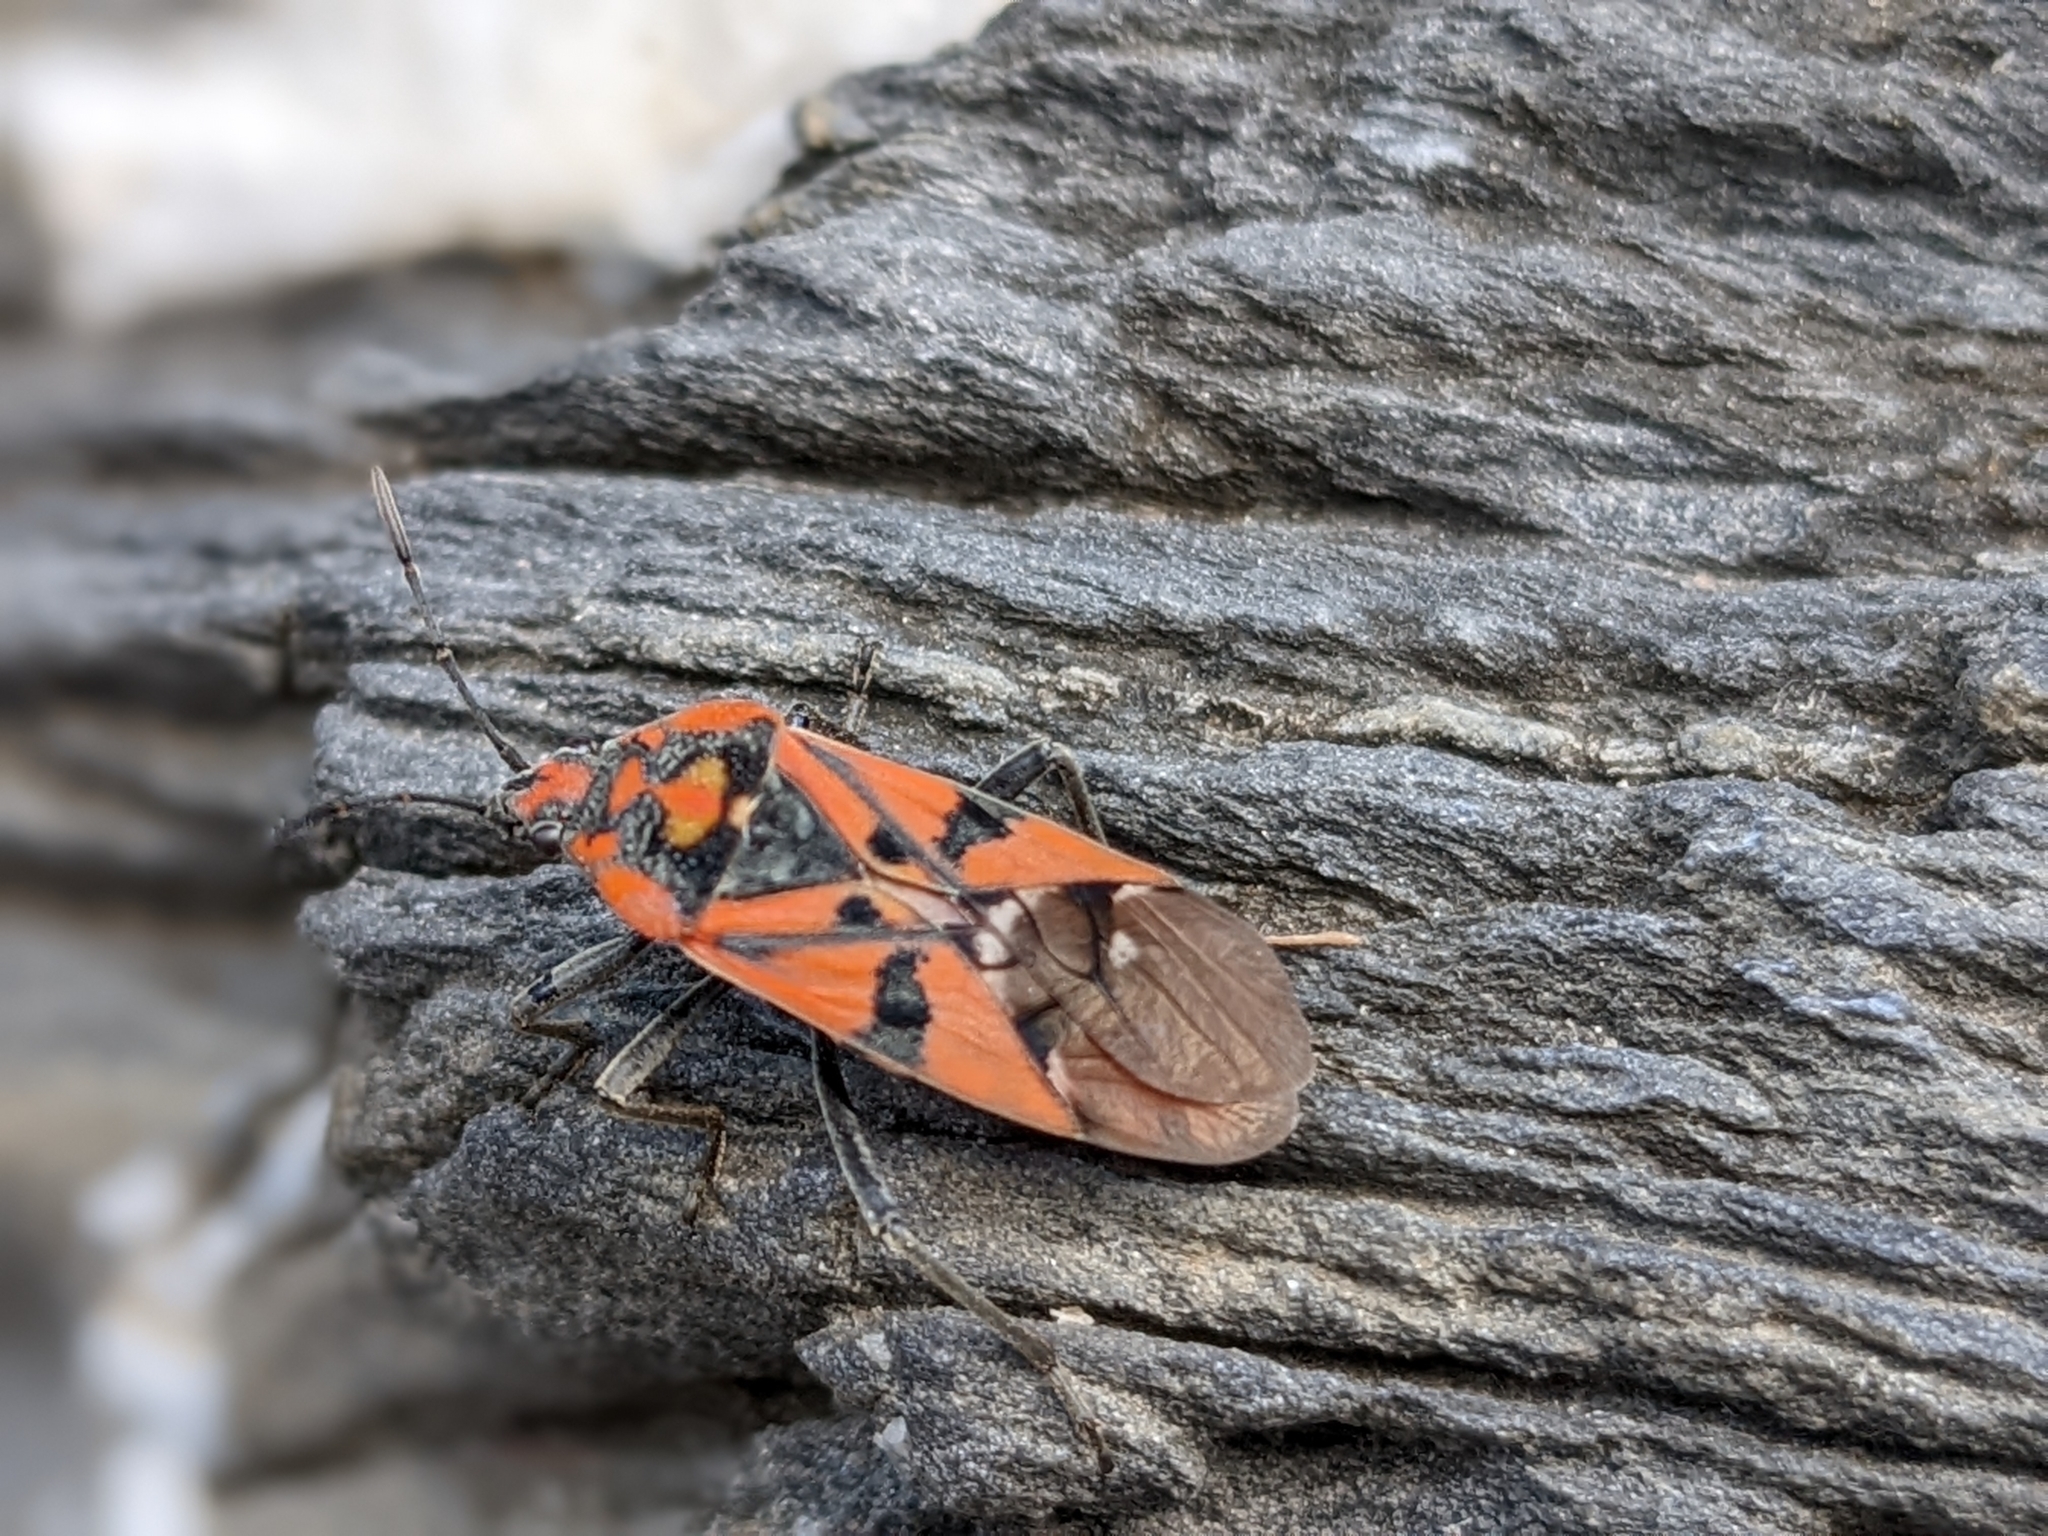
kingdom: Animalia
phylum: Arthropoda
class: Insecta
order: Hemiptera
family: Lygaeidae
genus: Spilostethus
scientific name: Spilostethus pandurus
